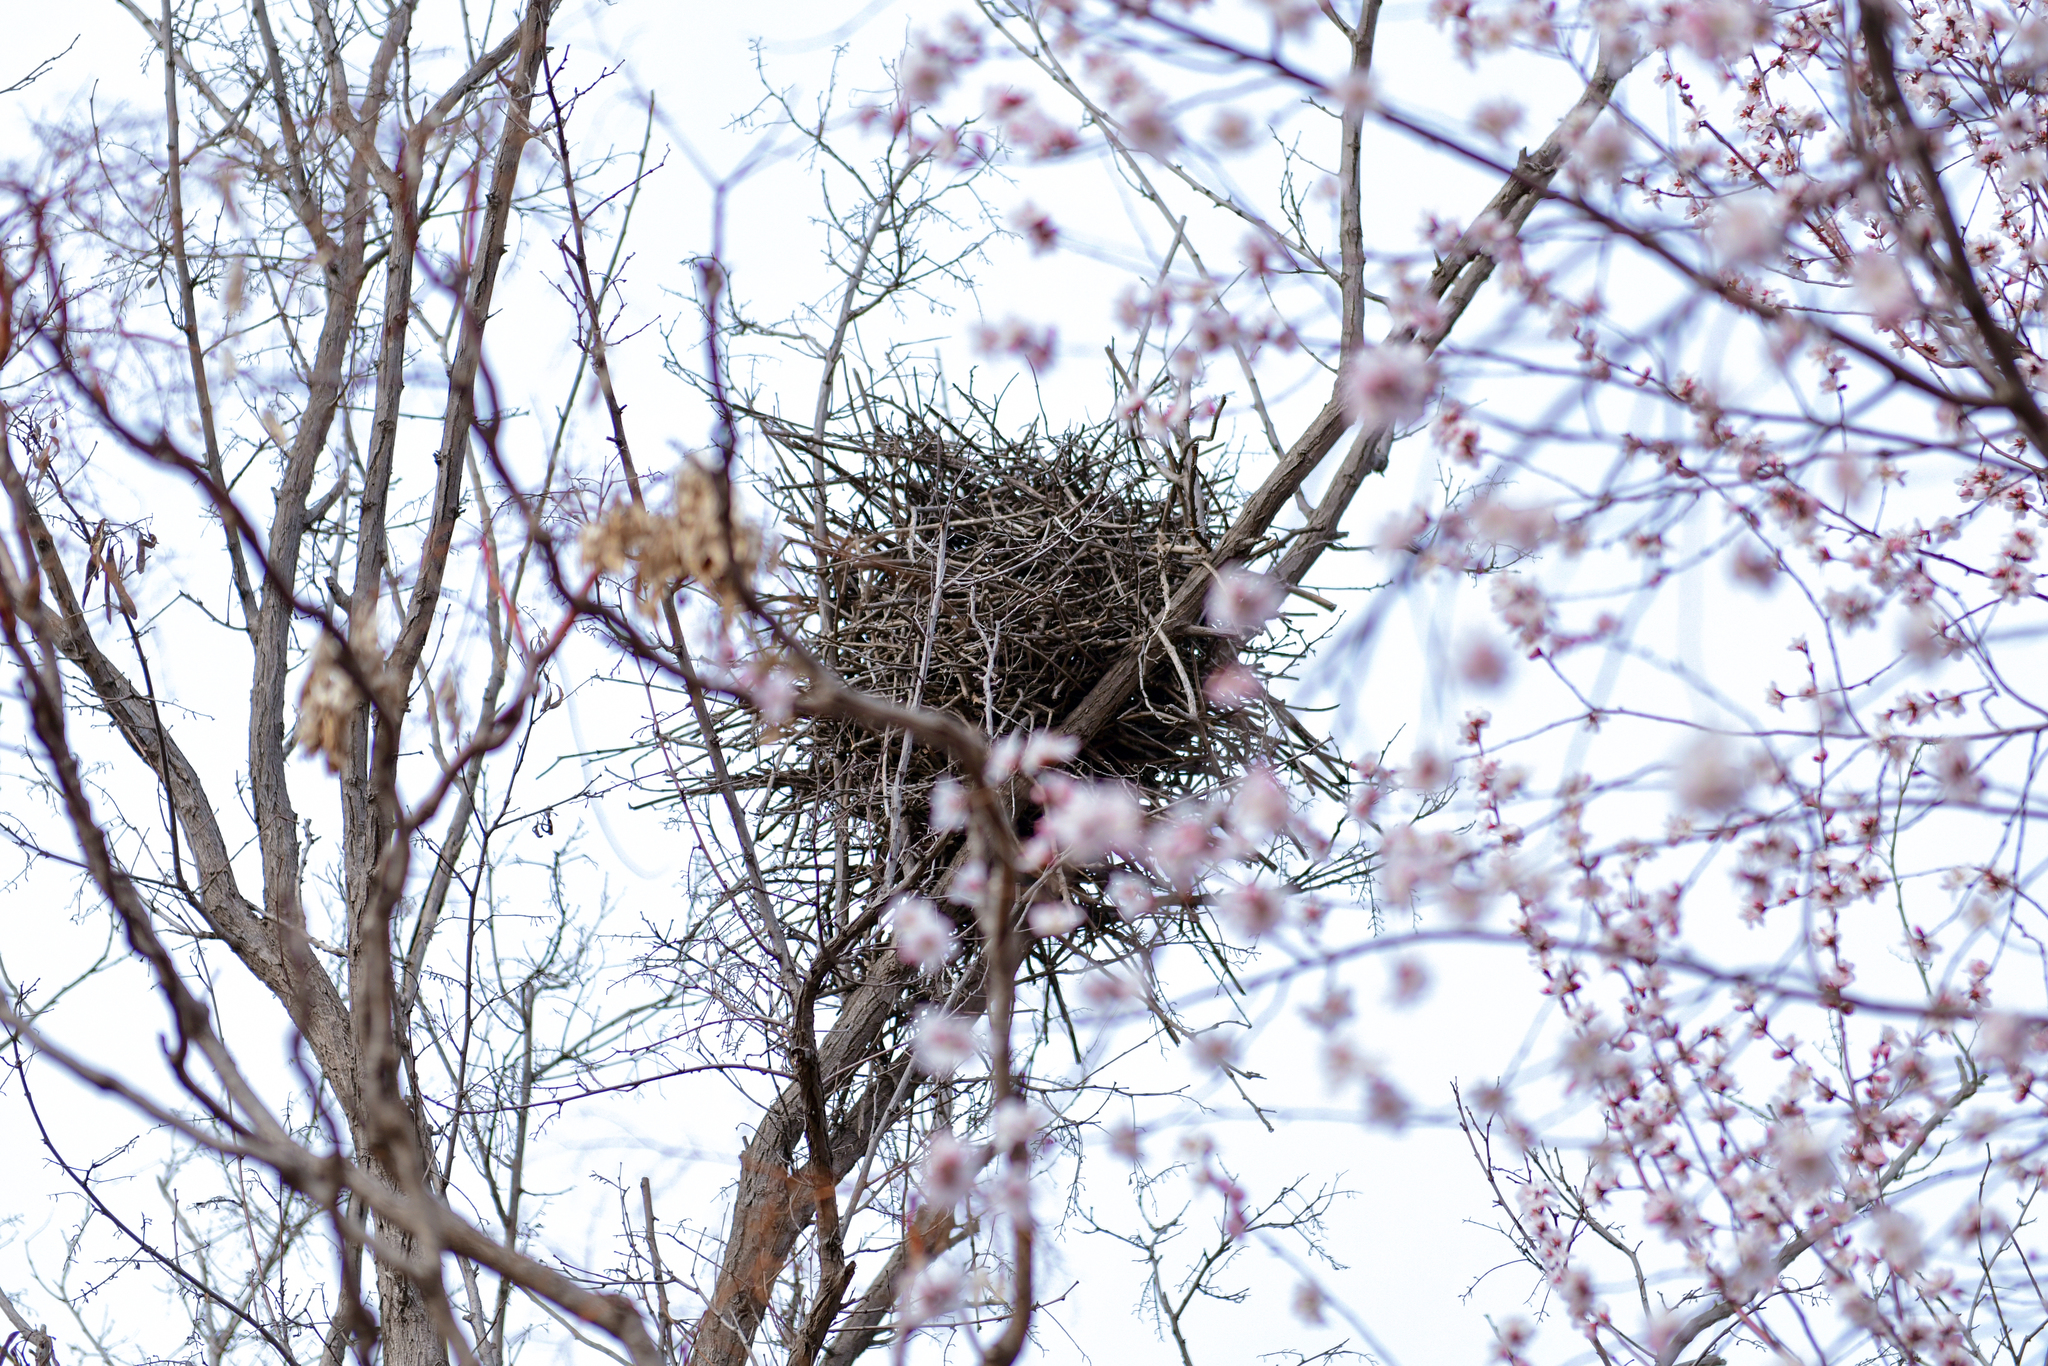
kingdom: Animalia
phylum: Chordata
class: Aves
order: Passeriformes
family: Corvidae
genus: Pica
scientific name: Pica serica
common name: Oriental magpie
